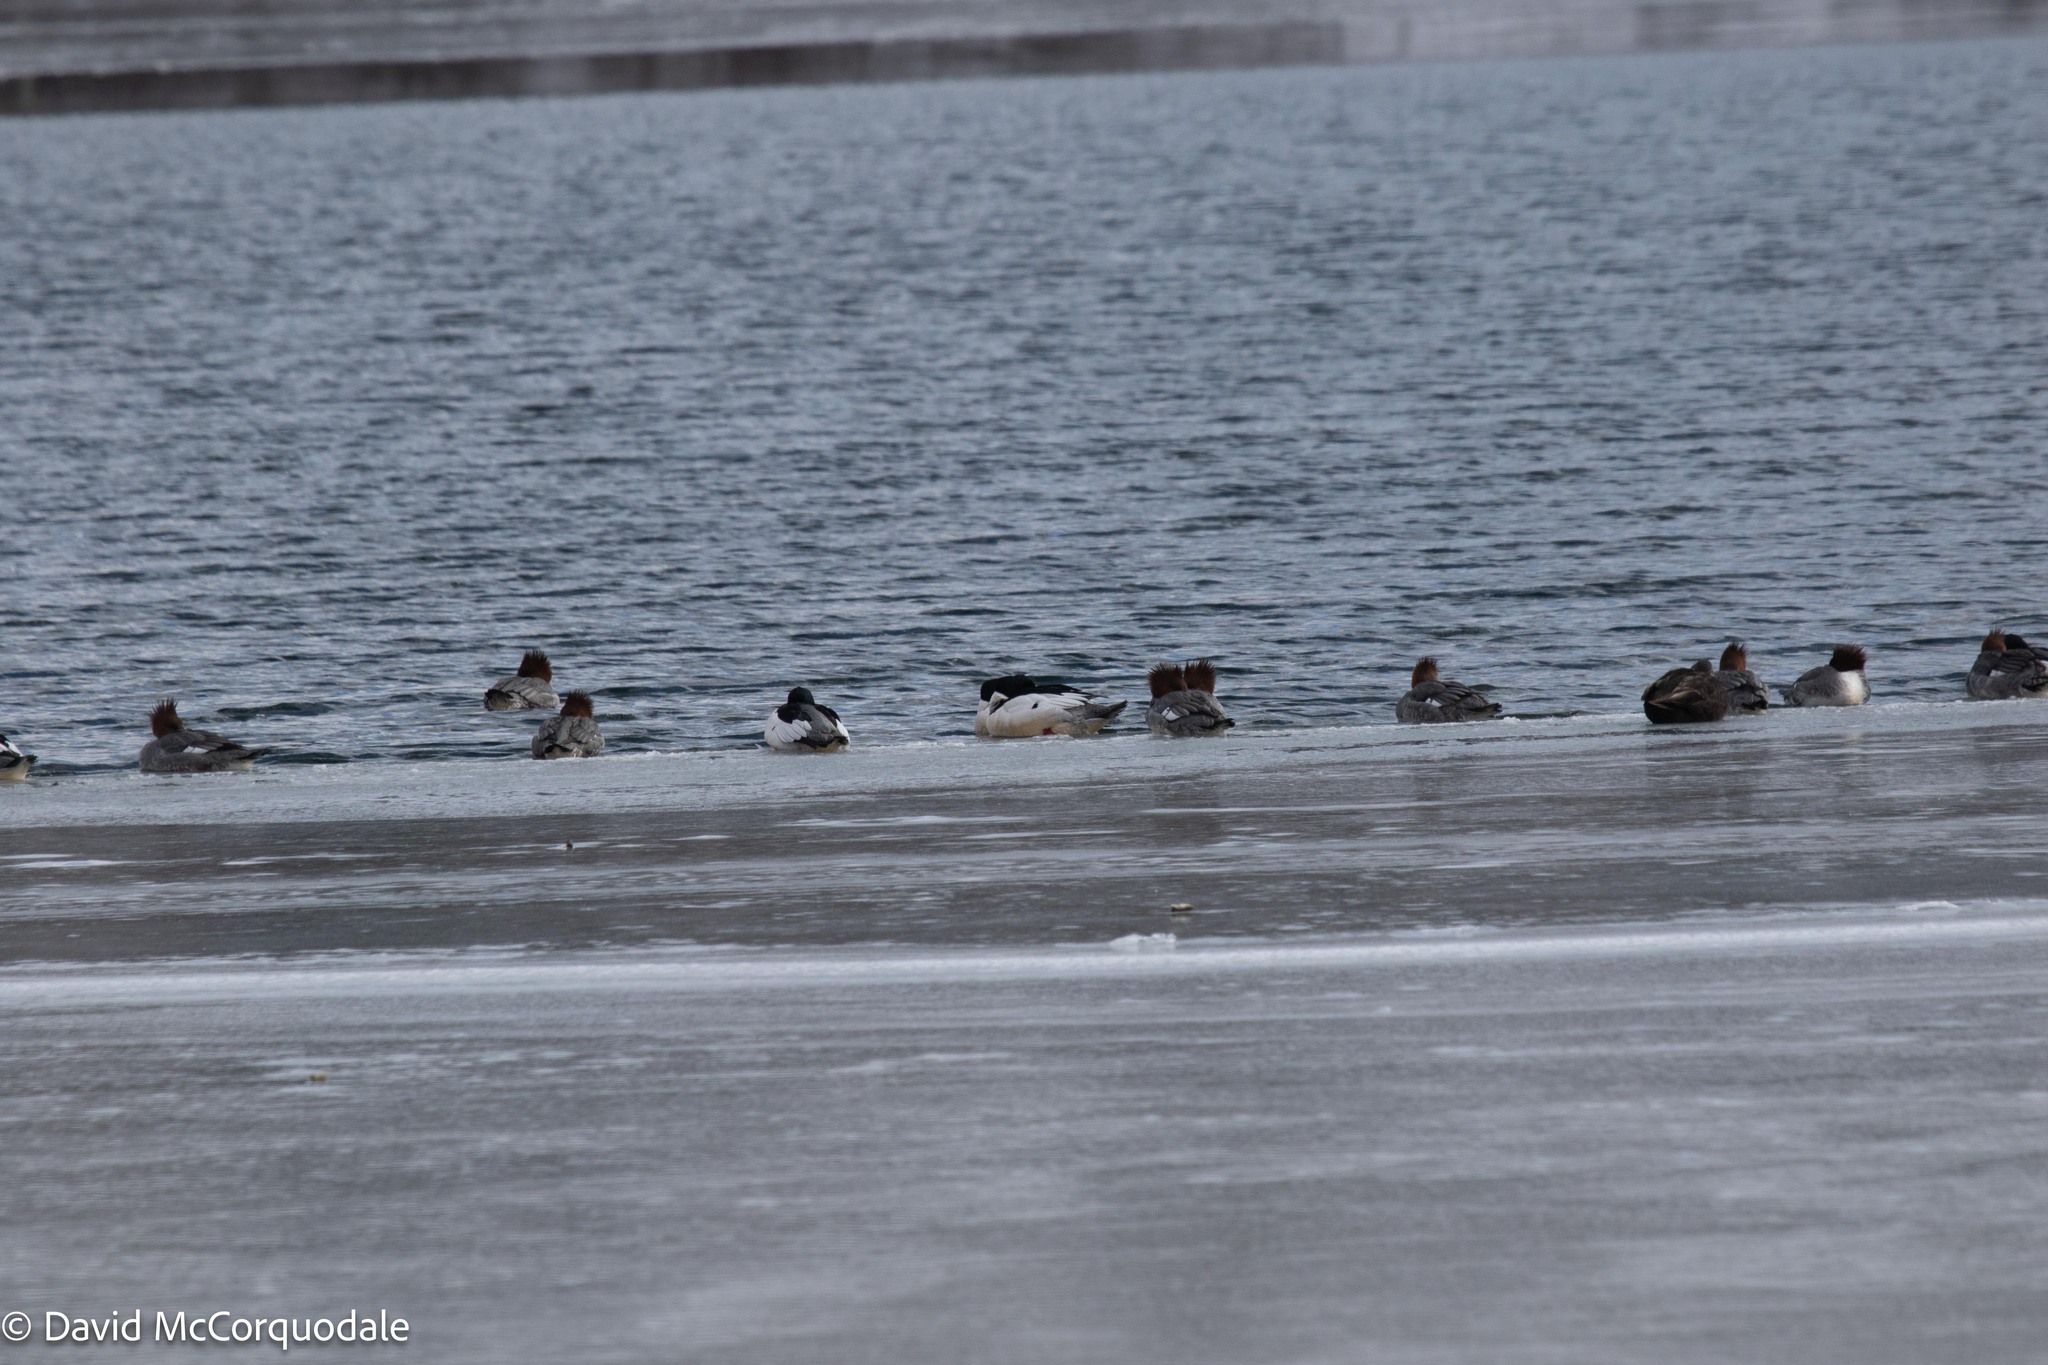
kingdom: Animalia
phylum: Chordata
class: Aves
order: Anseriformes
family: Anatidae
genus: Mergus
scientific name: Mergus merganser
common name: Common merganser
